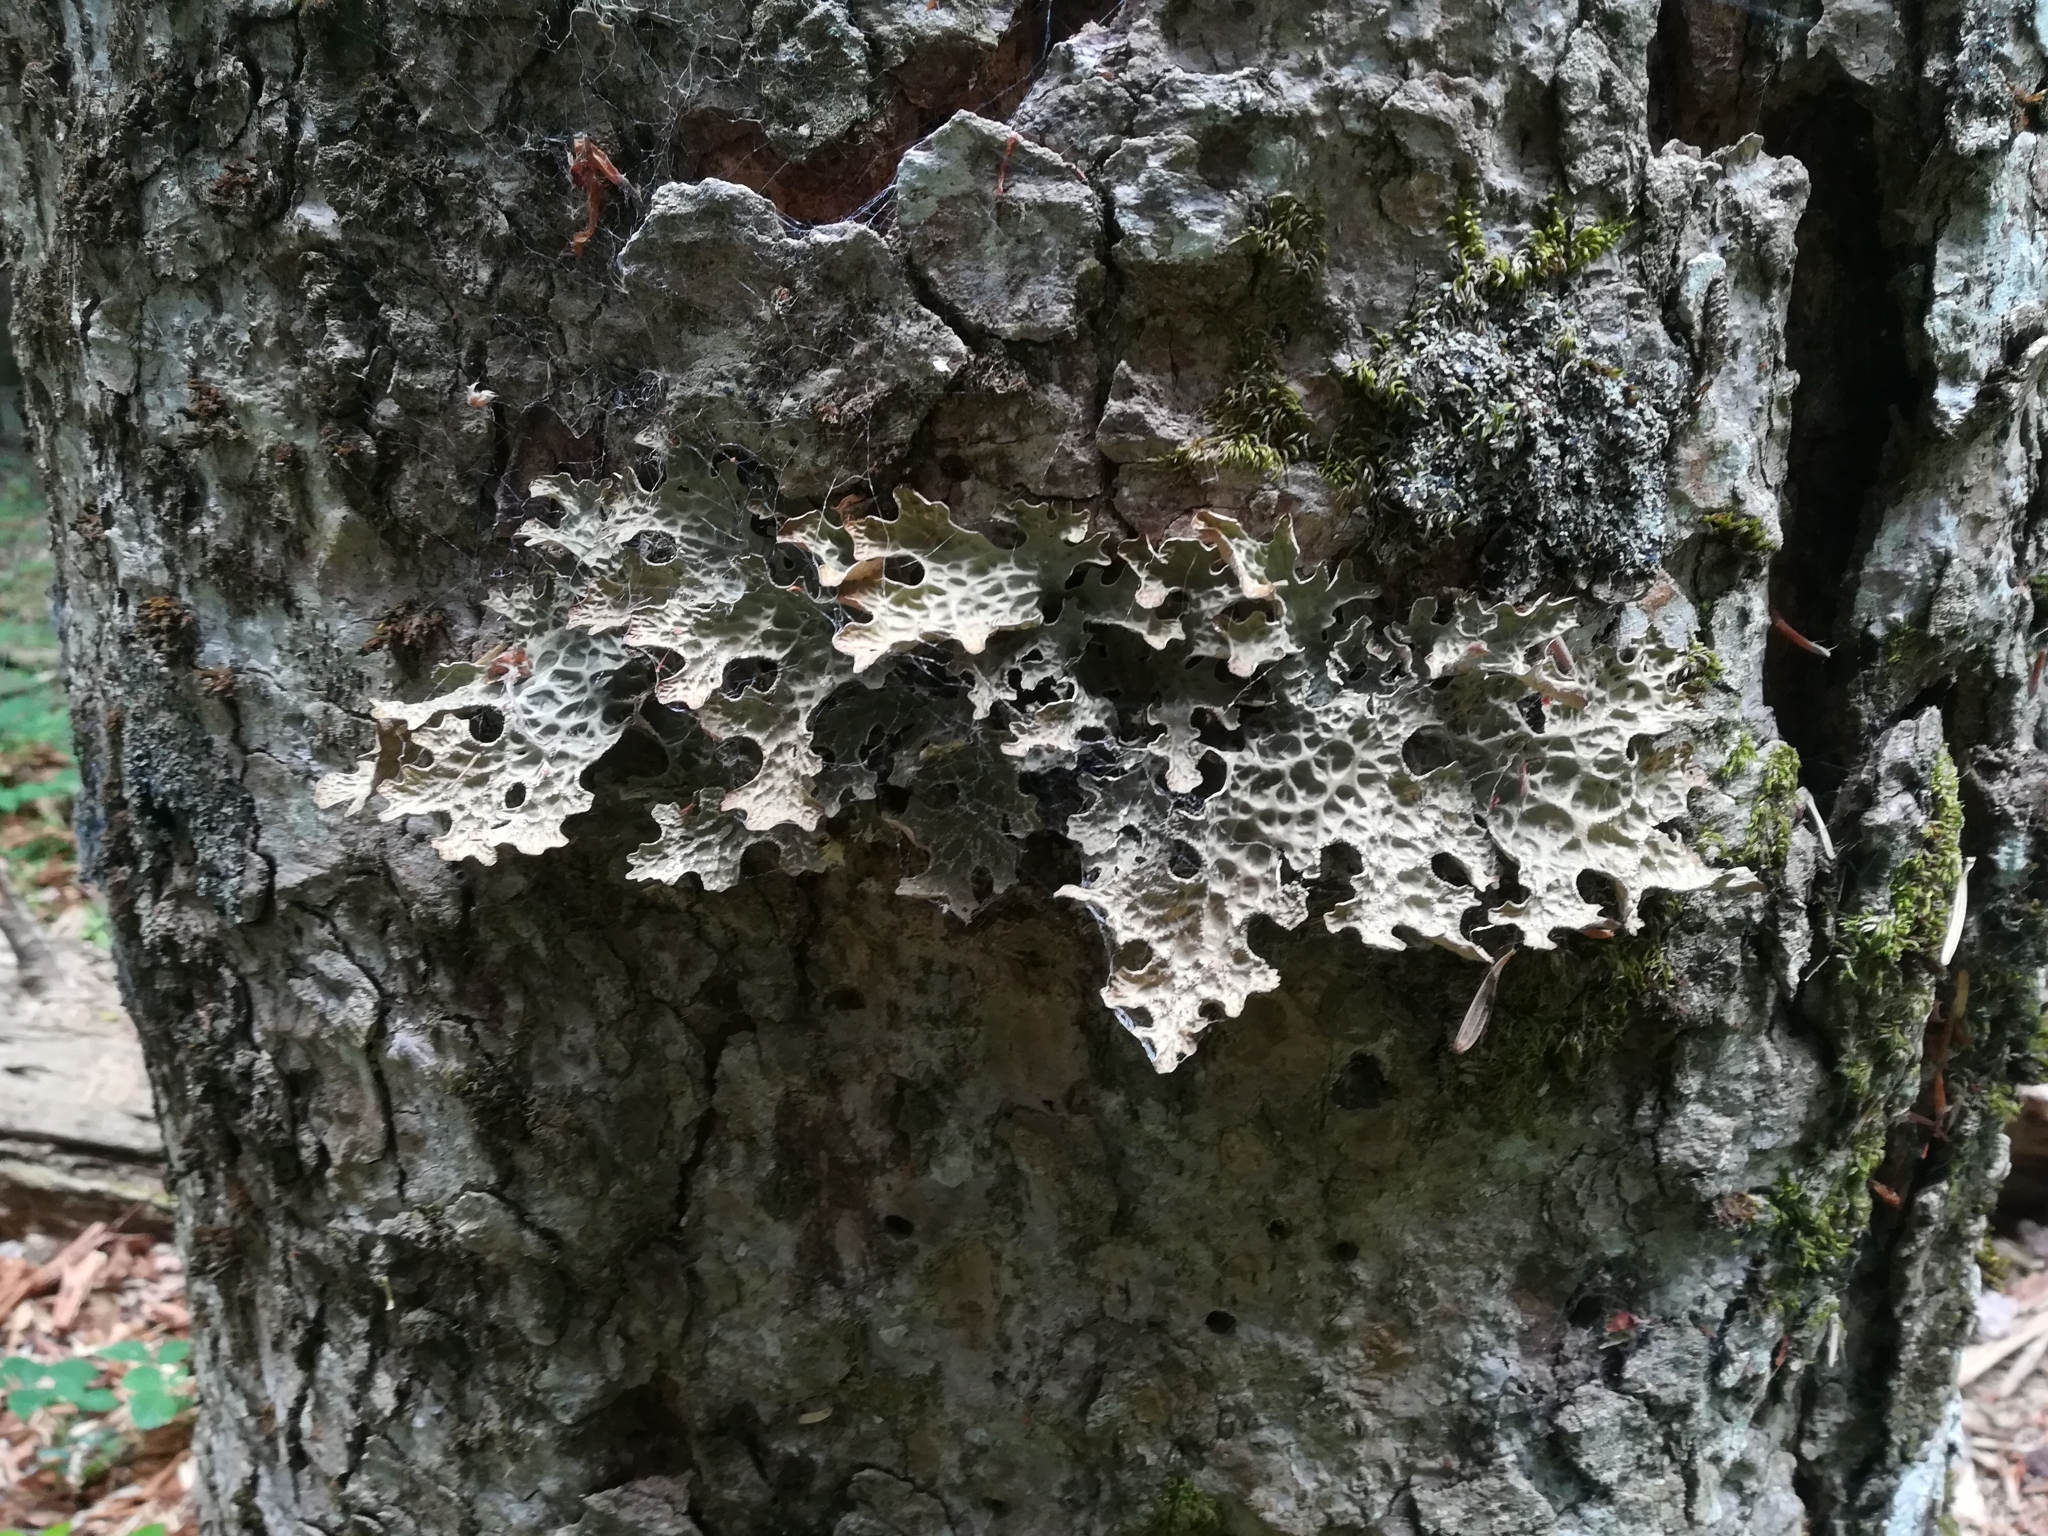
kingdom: Fungi
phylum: Ascomycota
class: Lecanoromycetes
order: Peltigerales
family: Lobariaceae
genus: Lobaria
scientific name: Lobaria pulmonaria
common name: Lungwort
